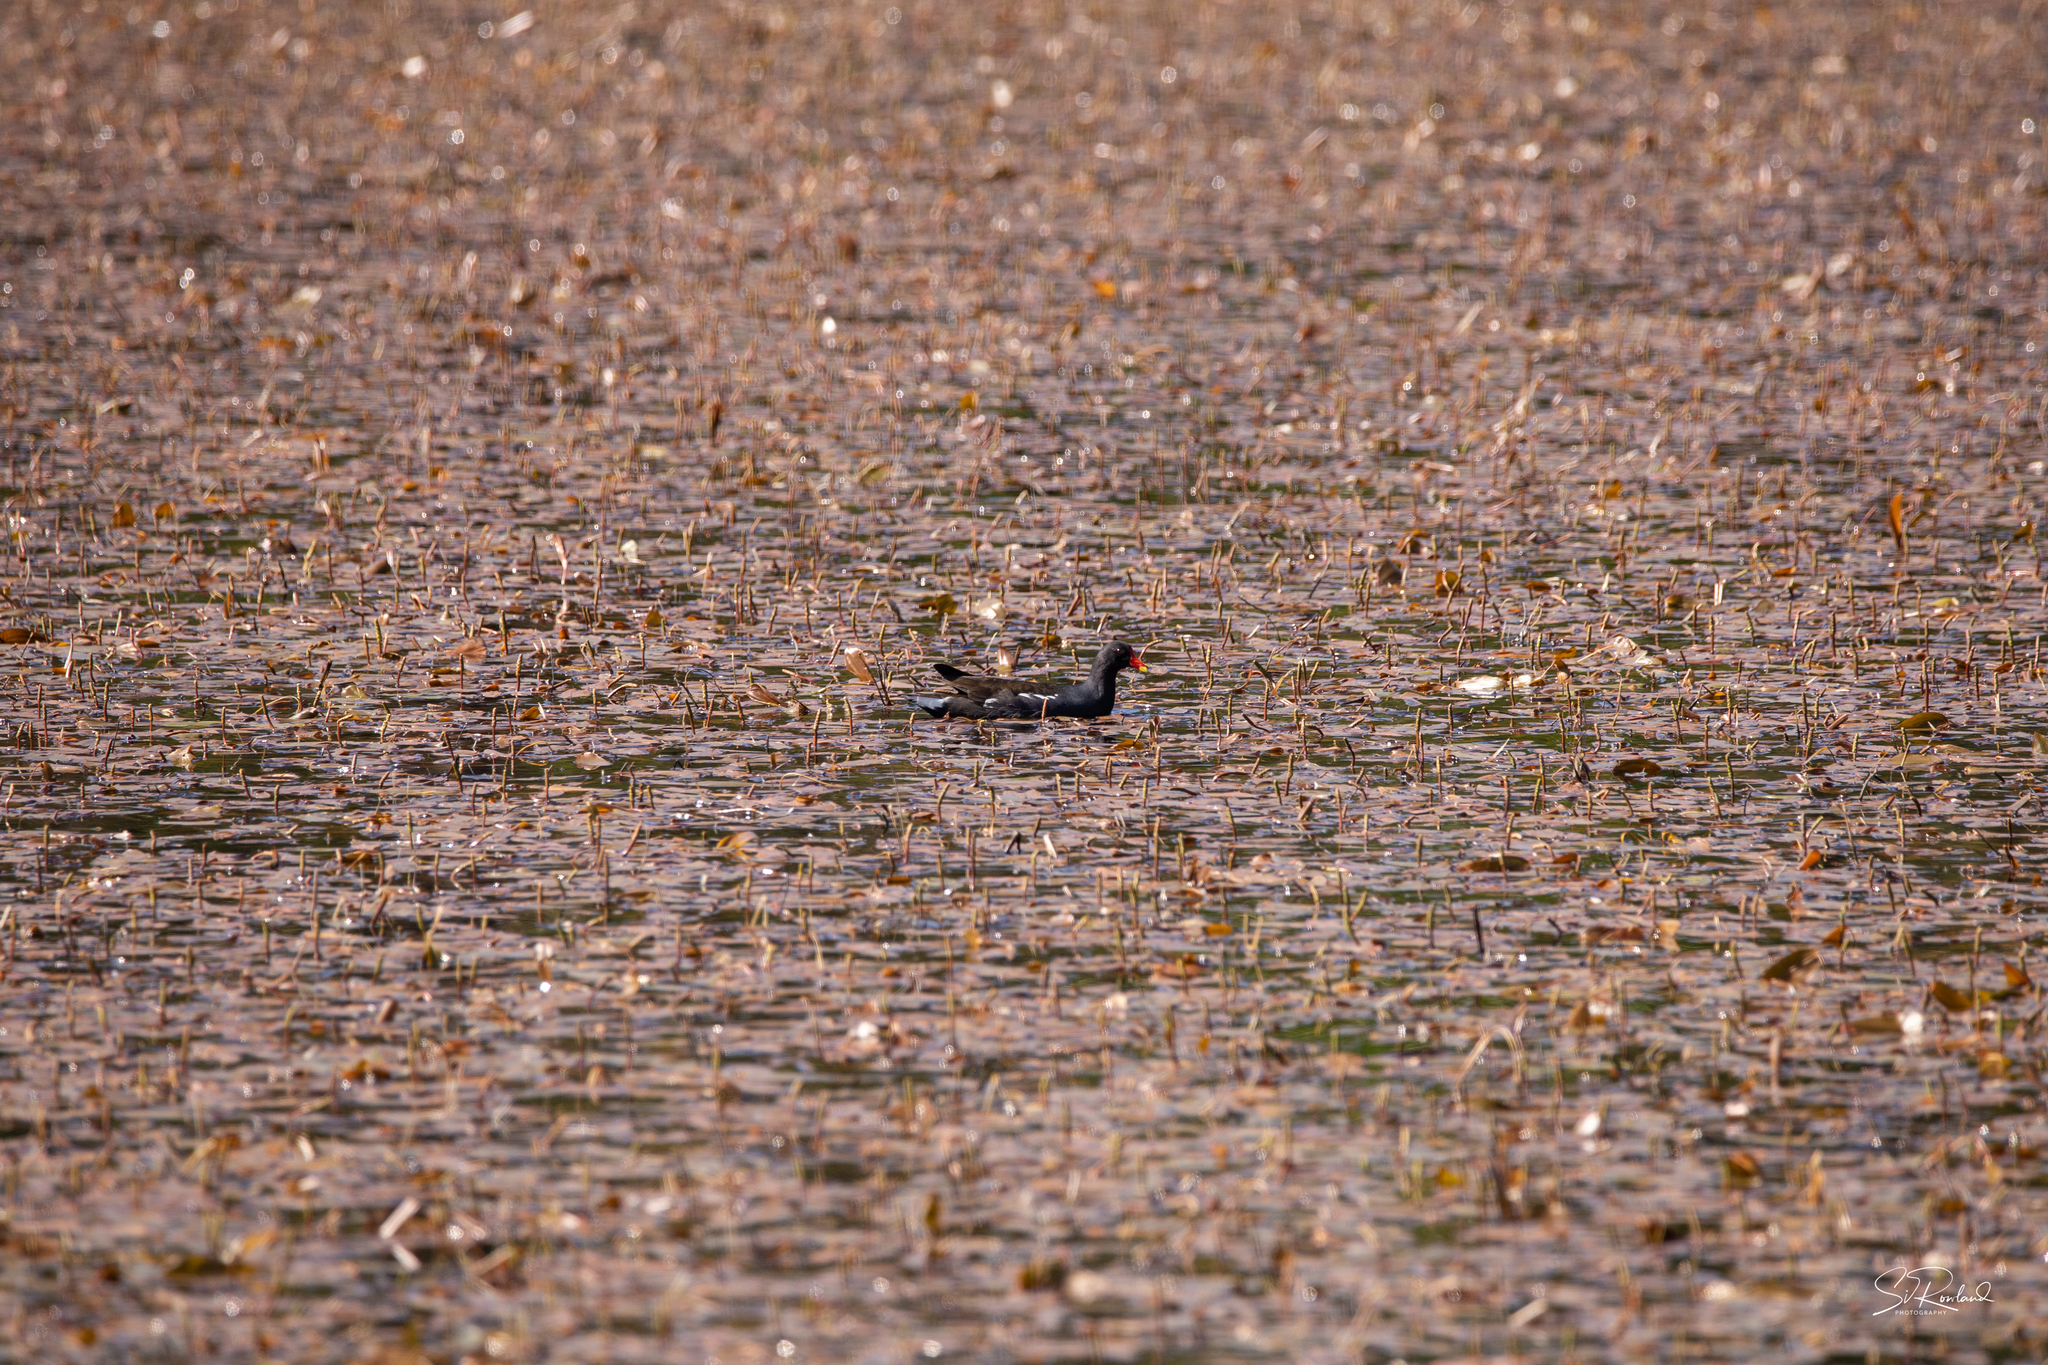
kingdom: Animalia
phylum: Chordata
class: Aves
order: Gruiformes
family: Rallidae
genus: Gallinula
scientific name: Gallinula chloropus
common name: Common moorhen
